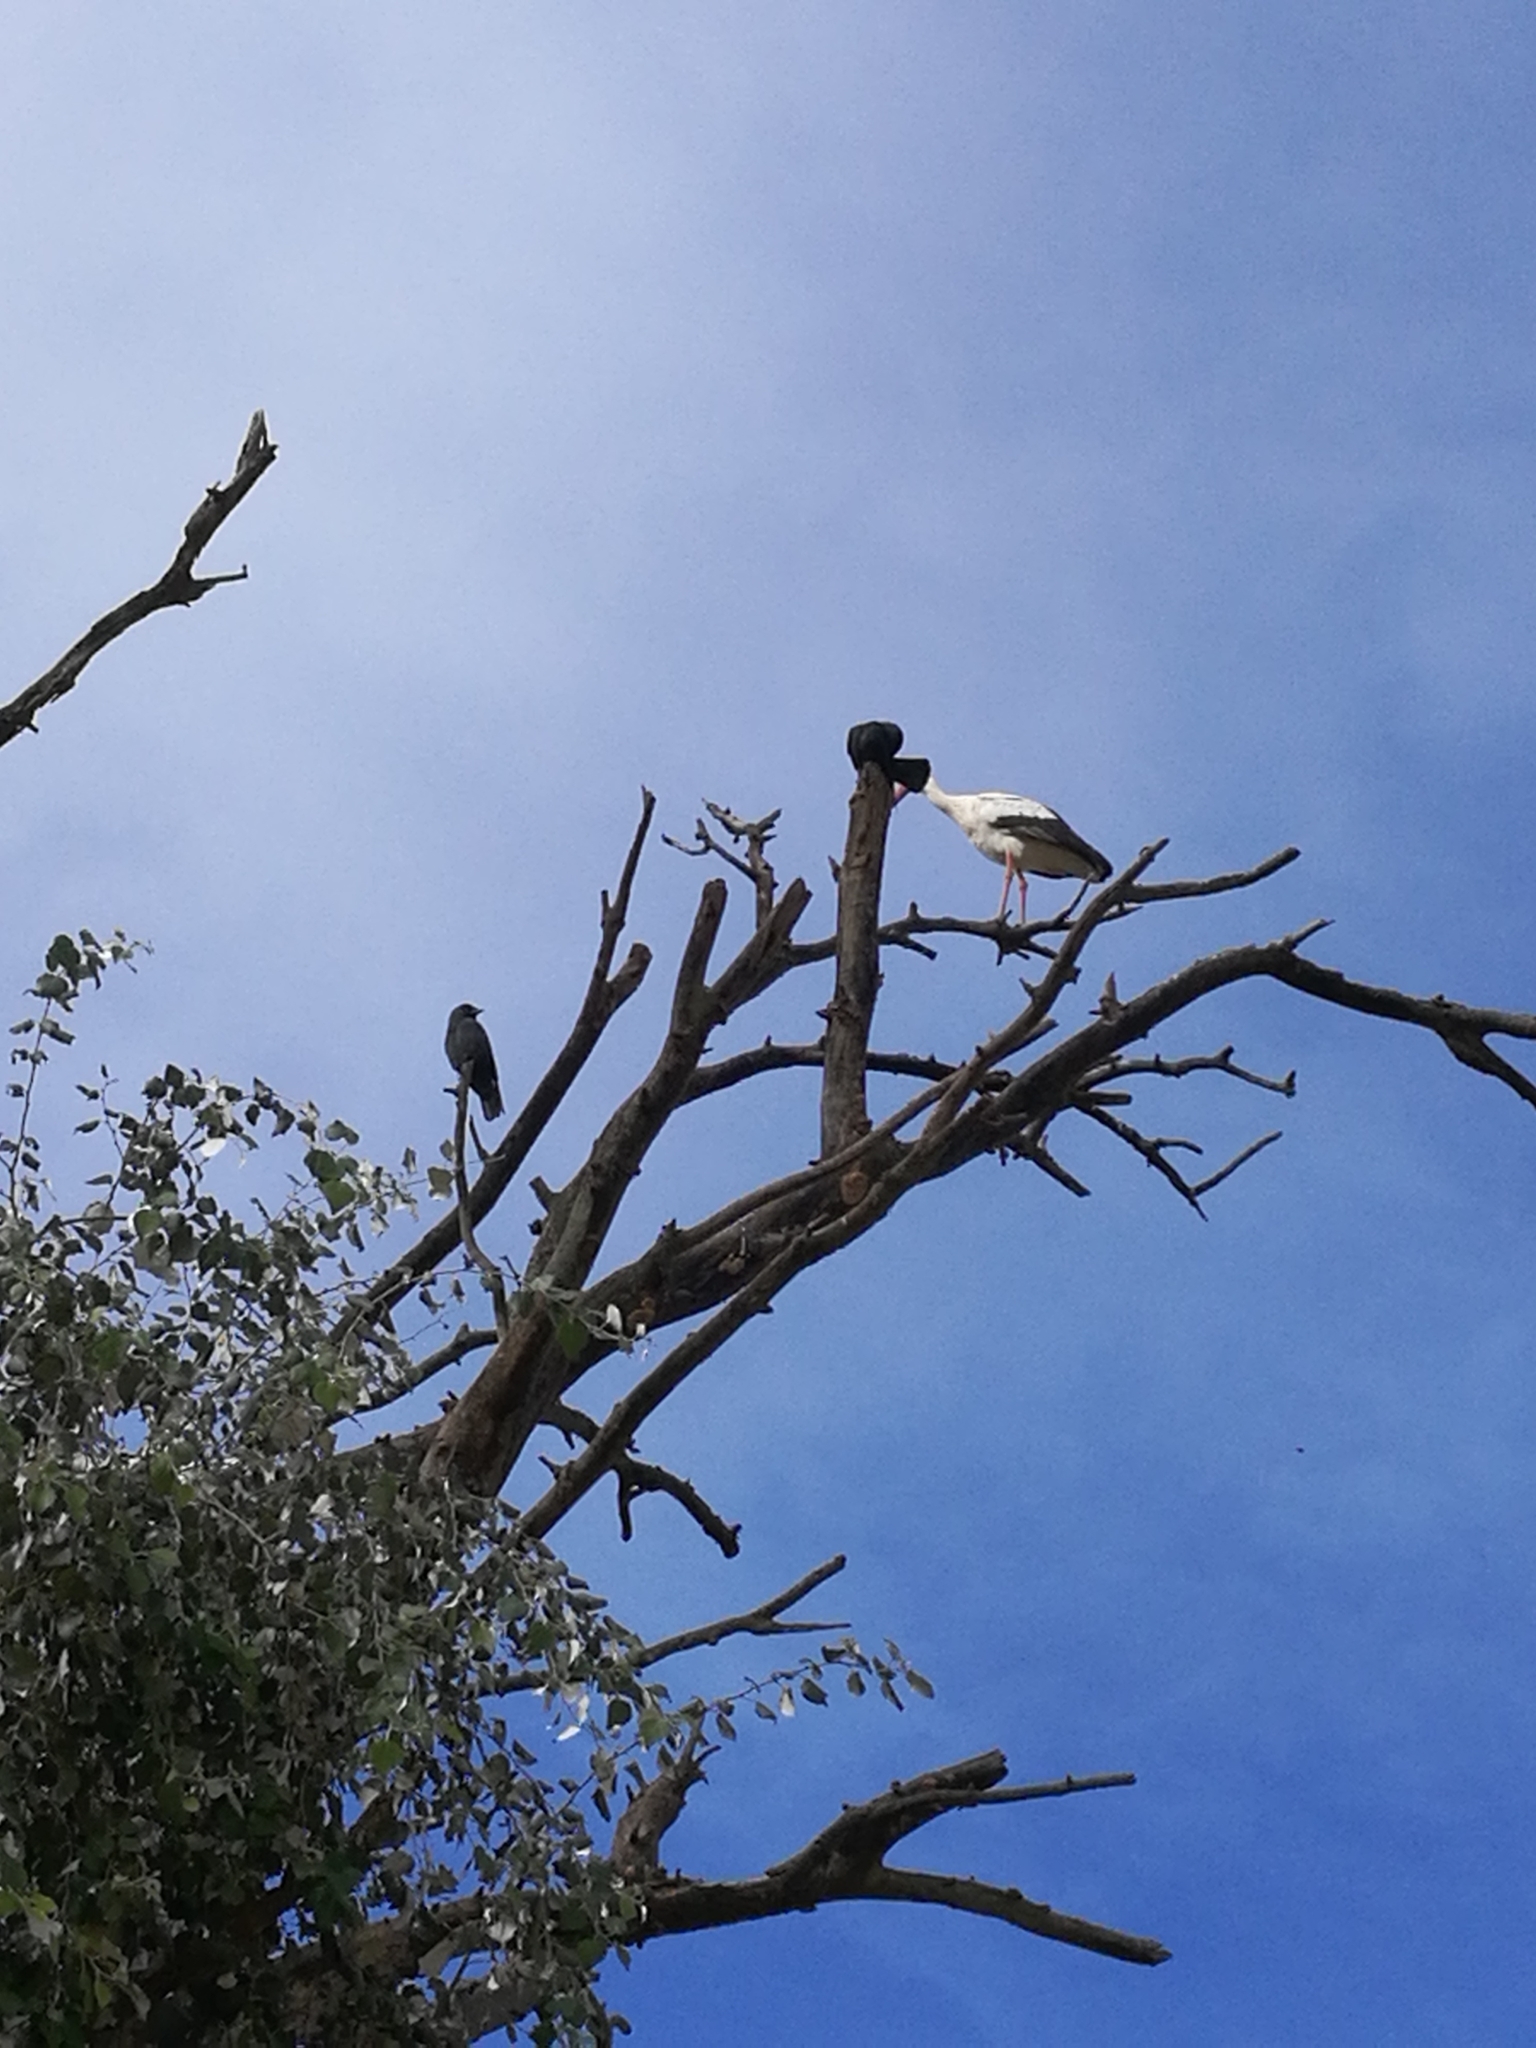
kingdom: Animalia
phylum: Chordata
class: Aves
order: Ciconiiformes
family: Ciconiidae
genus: Ciconia
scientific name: Ciconia ciconia
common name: White stork
